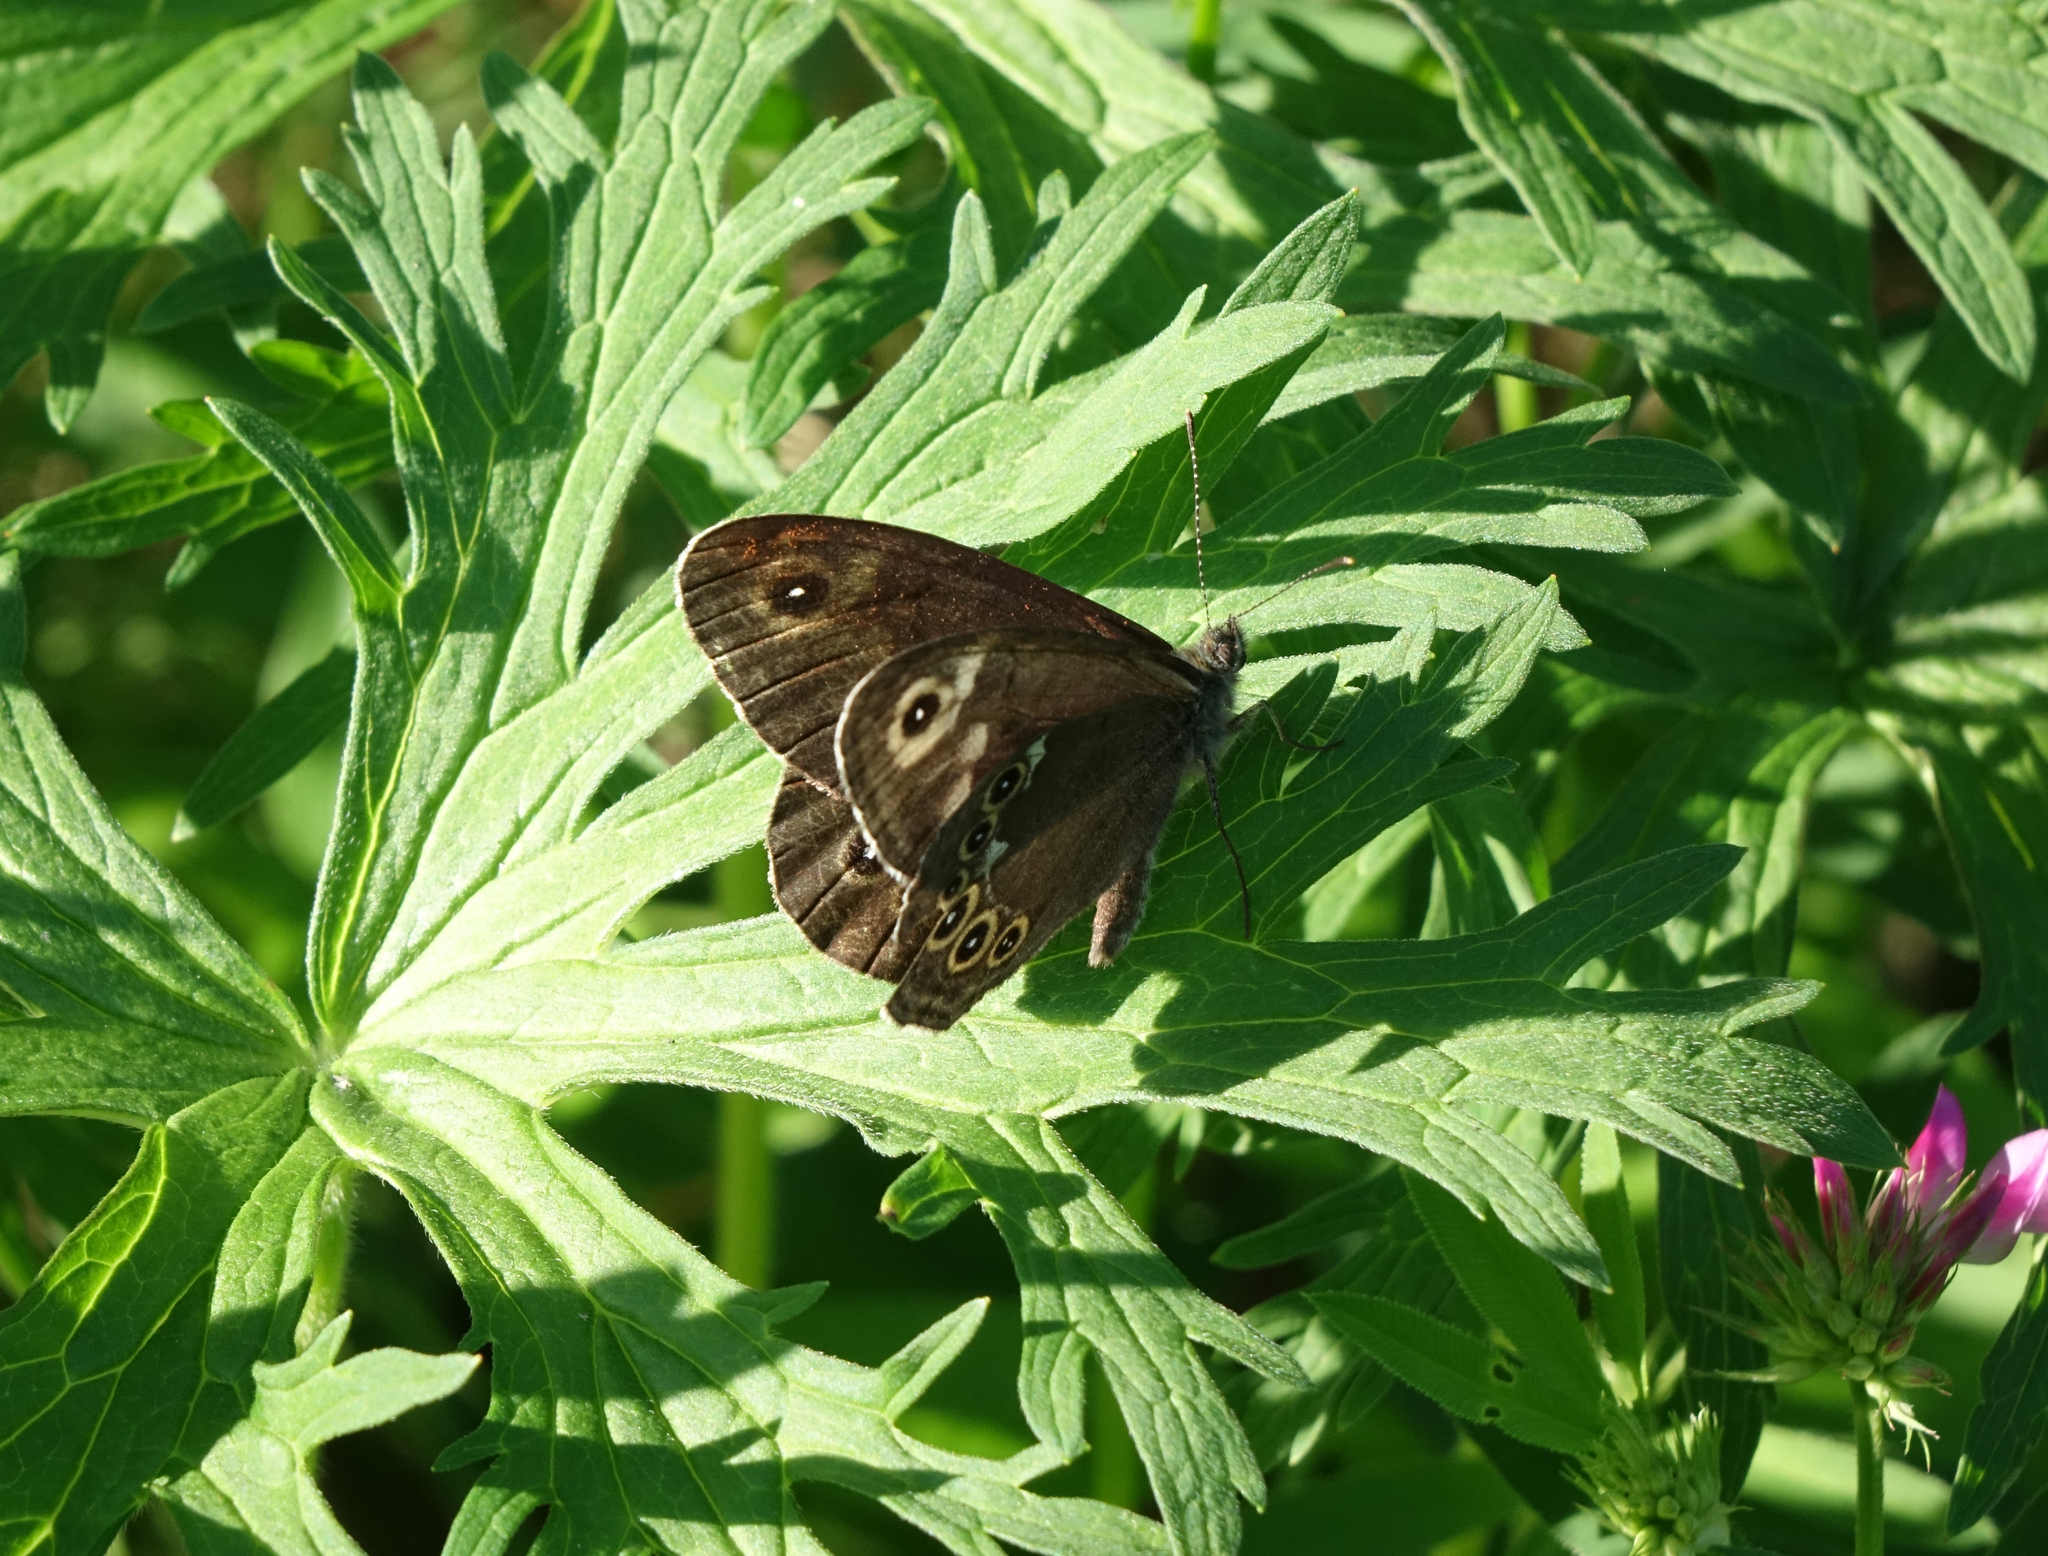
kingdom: Animalia
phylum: Arthropoda
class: Insecta
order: Lepidoptera
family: Nymphalidae
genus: Pararge
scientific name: Pararge Lasiommata deidamia
